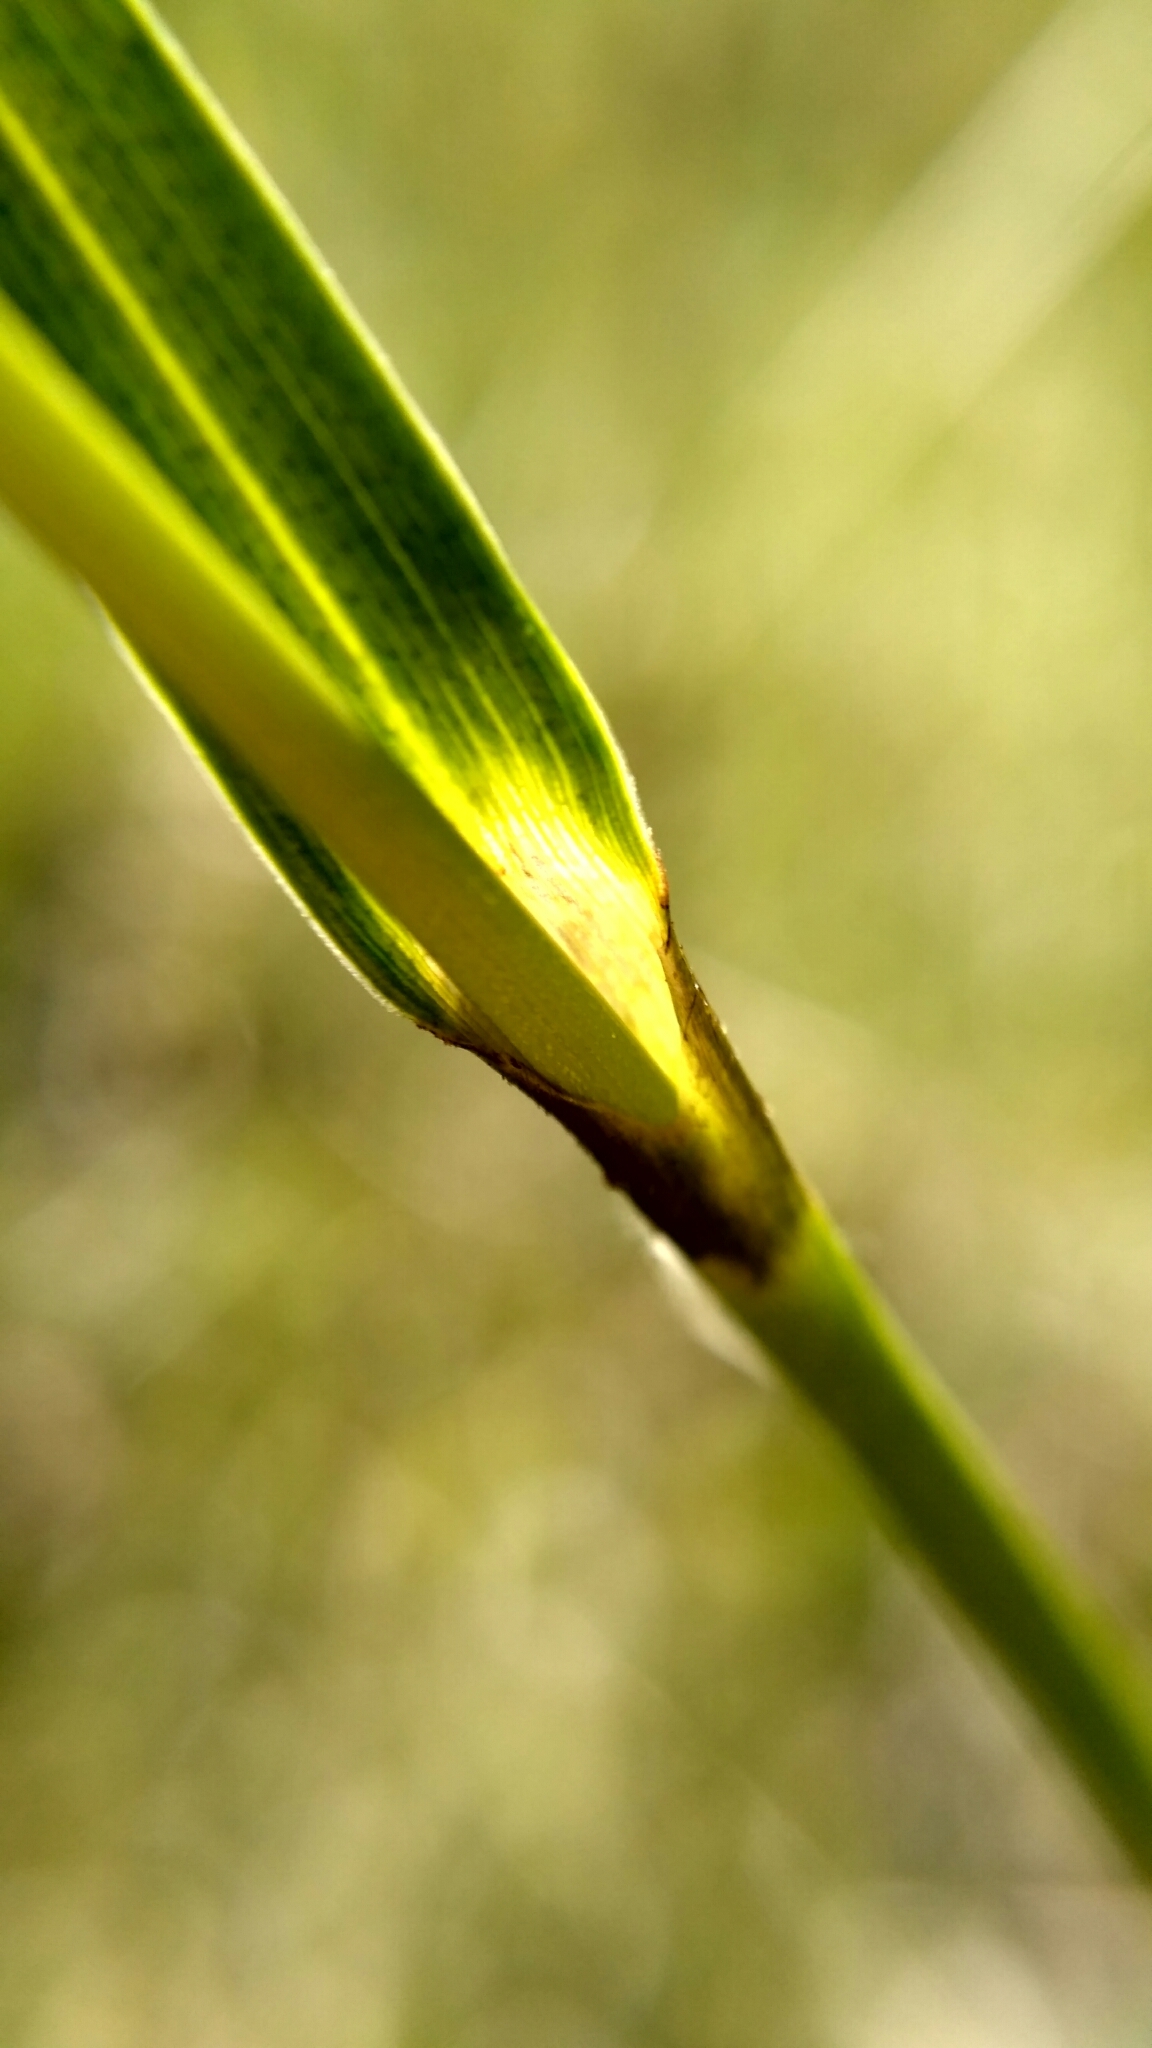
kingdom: Plantae
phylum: Tracheophyta
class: Liliopsida
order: Poales
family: Cyperaceae
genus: Eriophorum
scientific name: Eriophorum latifolium
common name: Broad-leaved cottongrass
